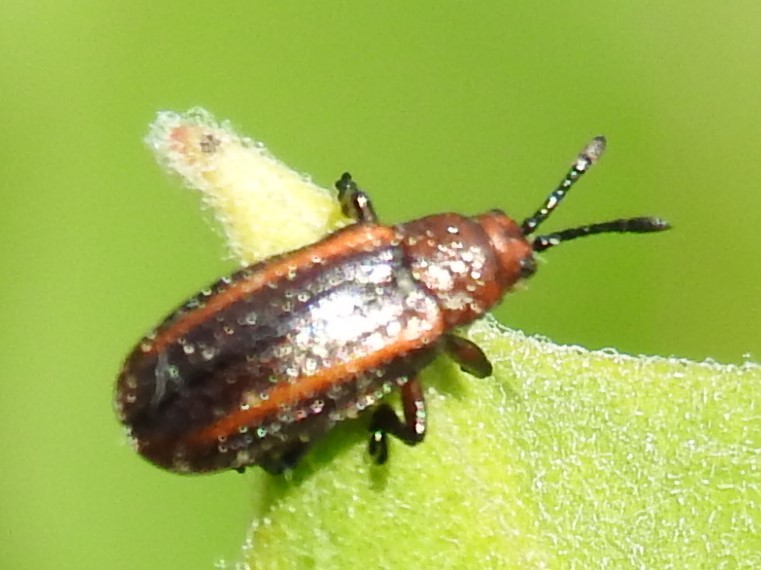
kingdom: Animalia
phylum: Arthropoda
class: Insecta
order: Coleoptera
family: Chrysomelidae
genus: Microrhopala
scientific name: Microrhopala vittata
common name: Goldenrod leaf miner beetle
